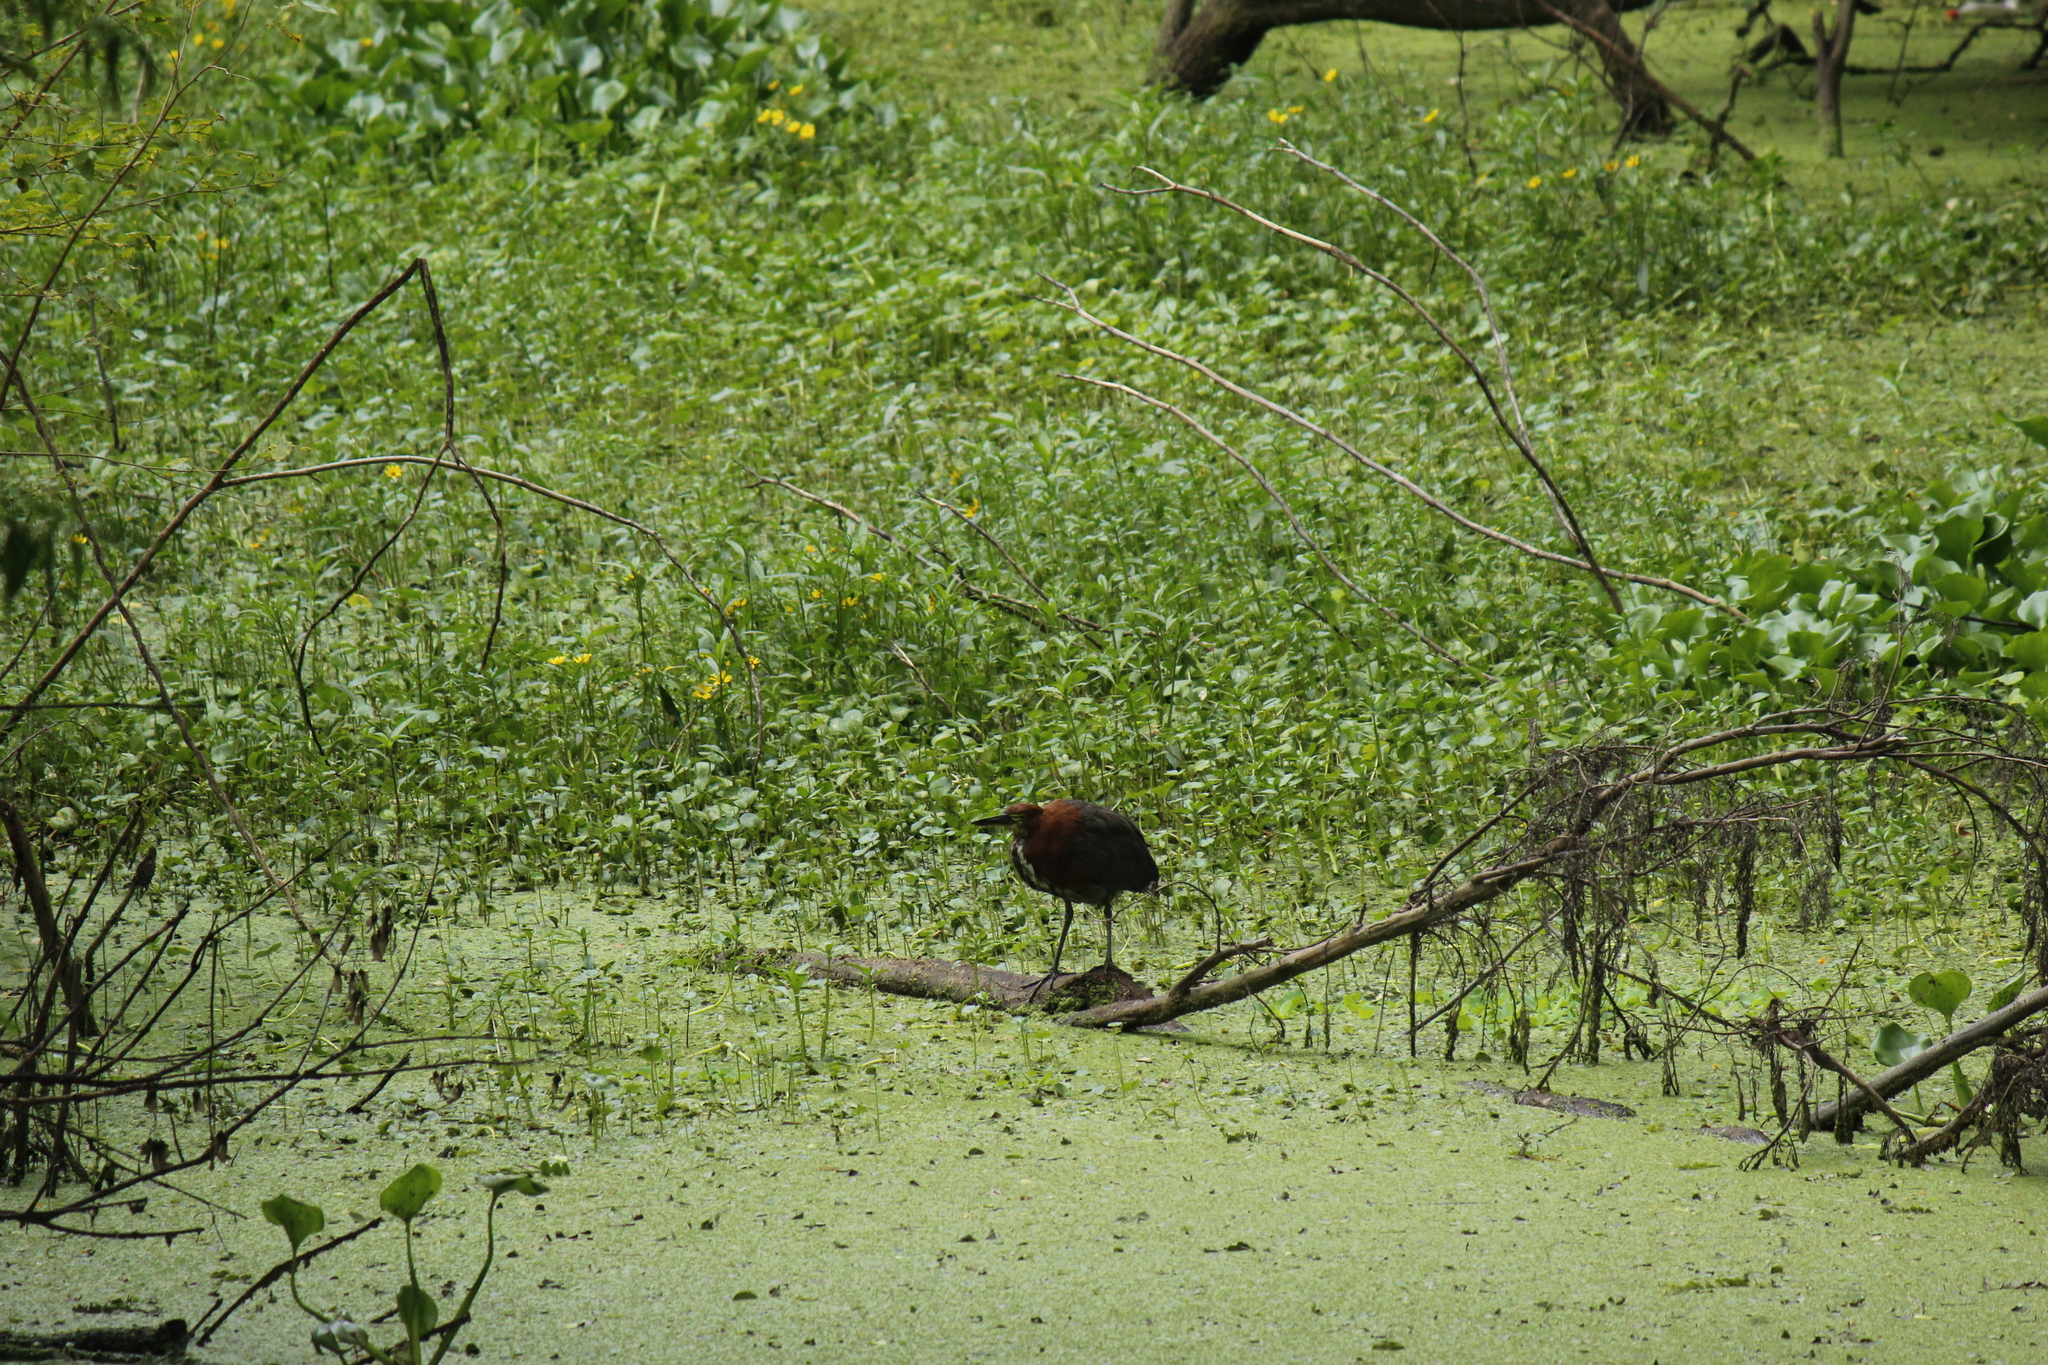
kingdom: Animalia
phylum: Chordata
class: Aves
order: Pelecaniformes
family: Ardeidae
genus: Tigrisoma
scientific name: Tigrisoma lineatum
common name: Rufescent tiger-heron
